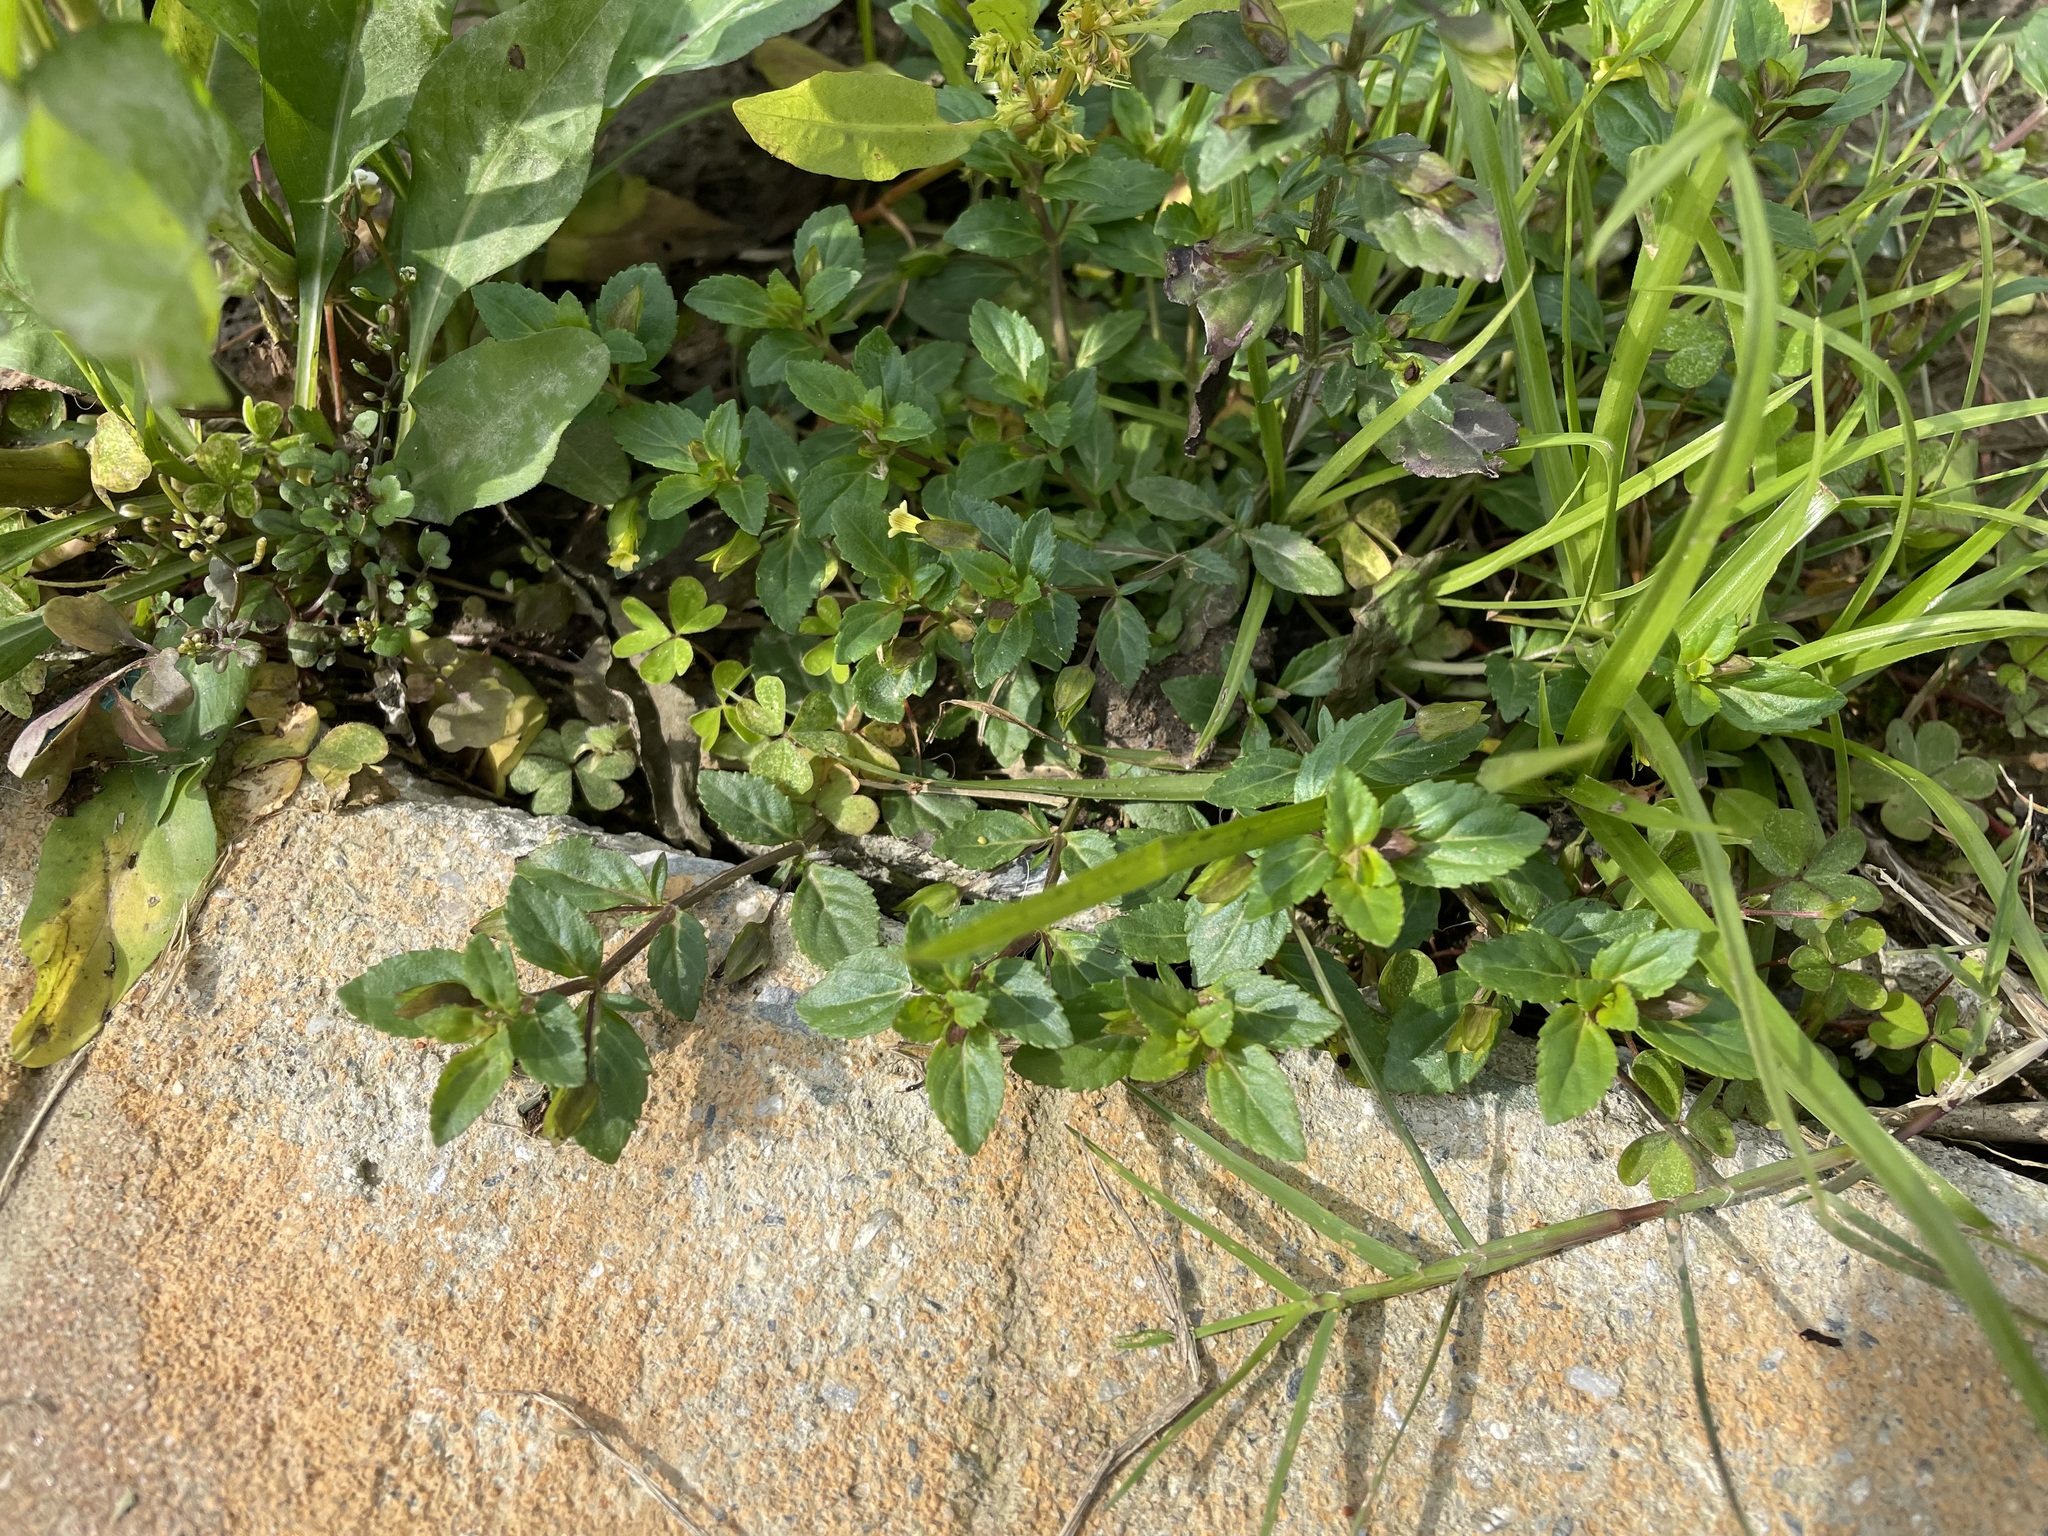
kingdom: Plantae
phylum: Tracheophyta
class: Magnoliopsida
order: Lamiales
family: Plantaginaceae
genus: Mecardonia
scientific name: Mecardonia procumbens
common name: Baby jump-up
